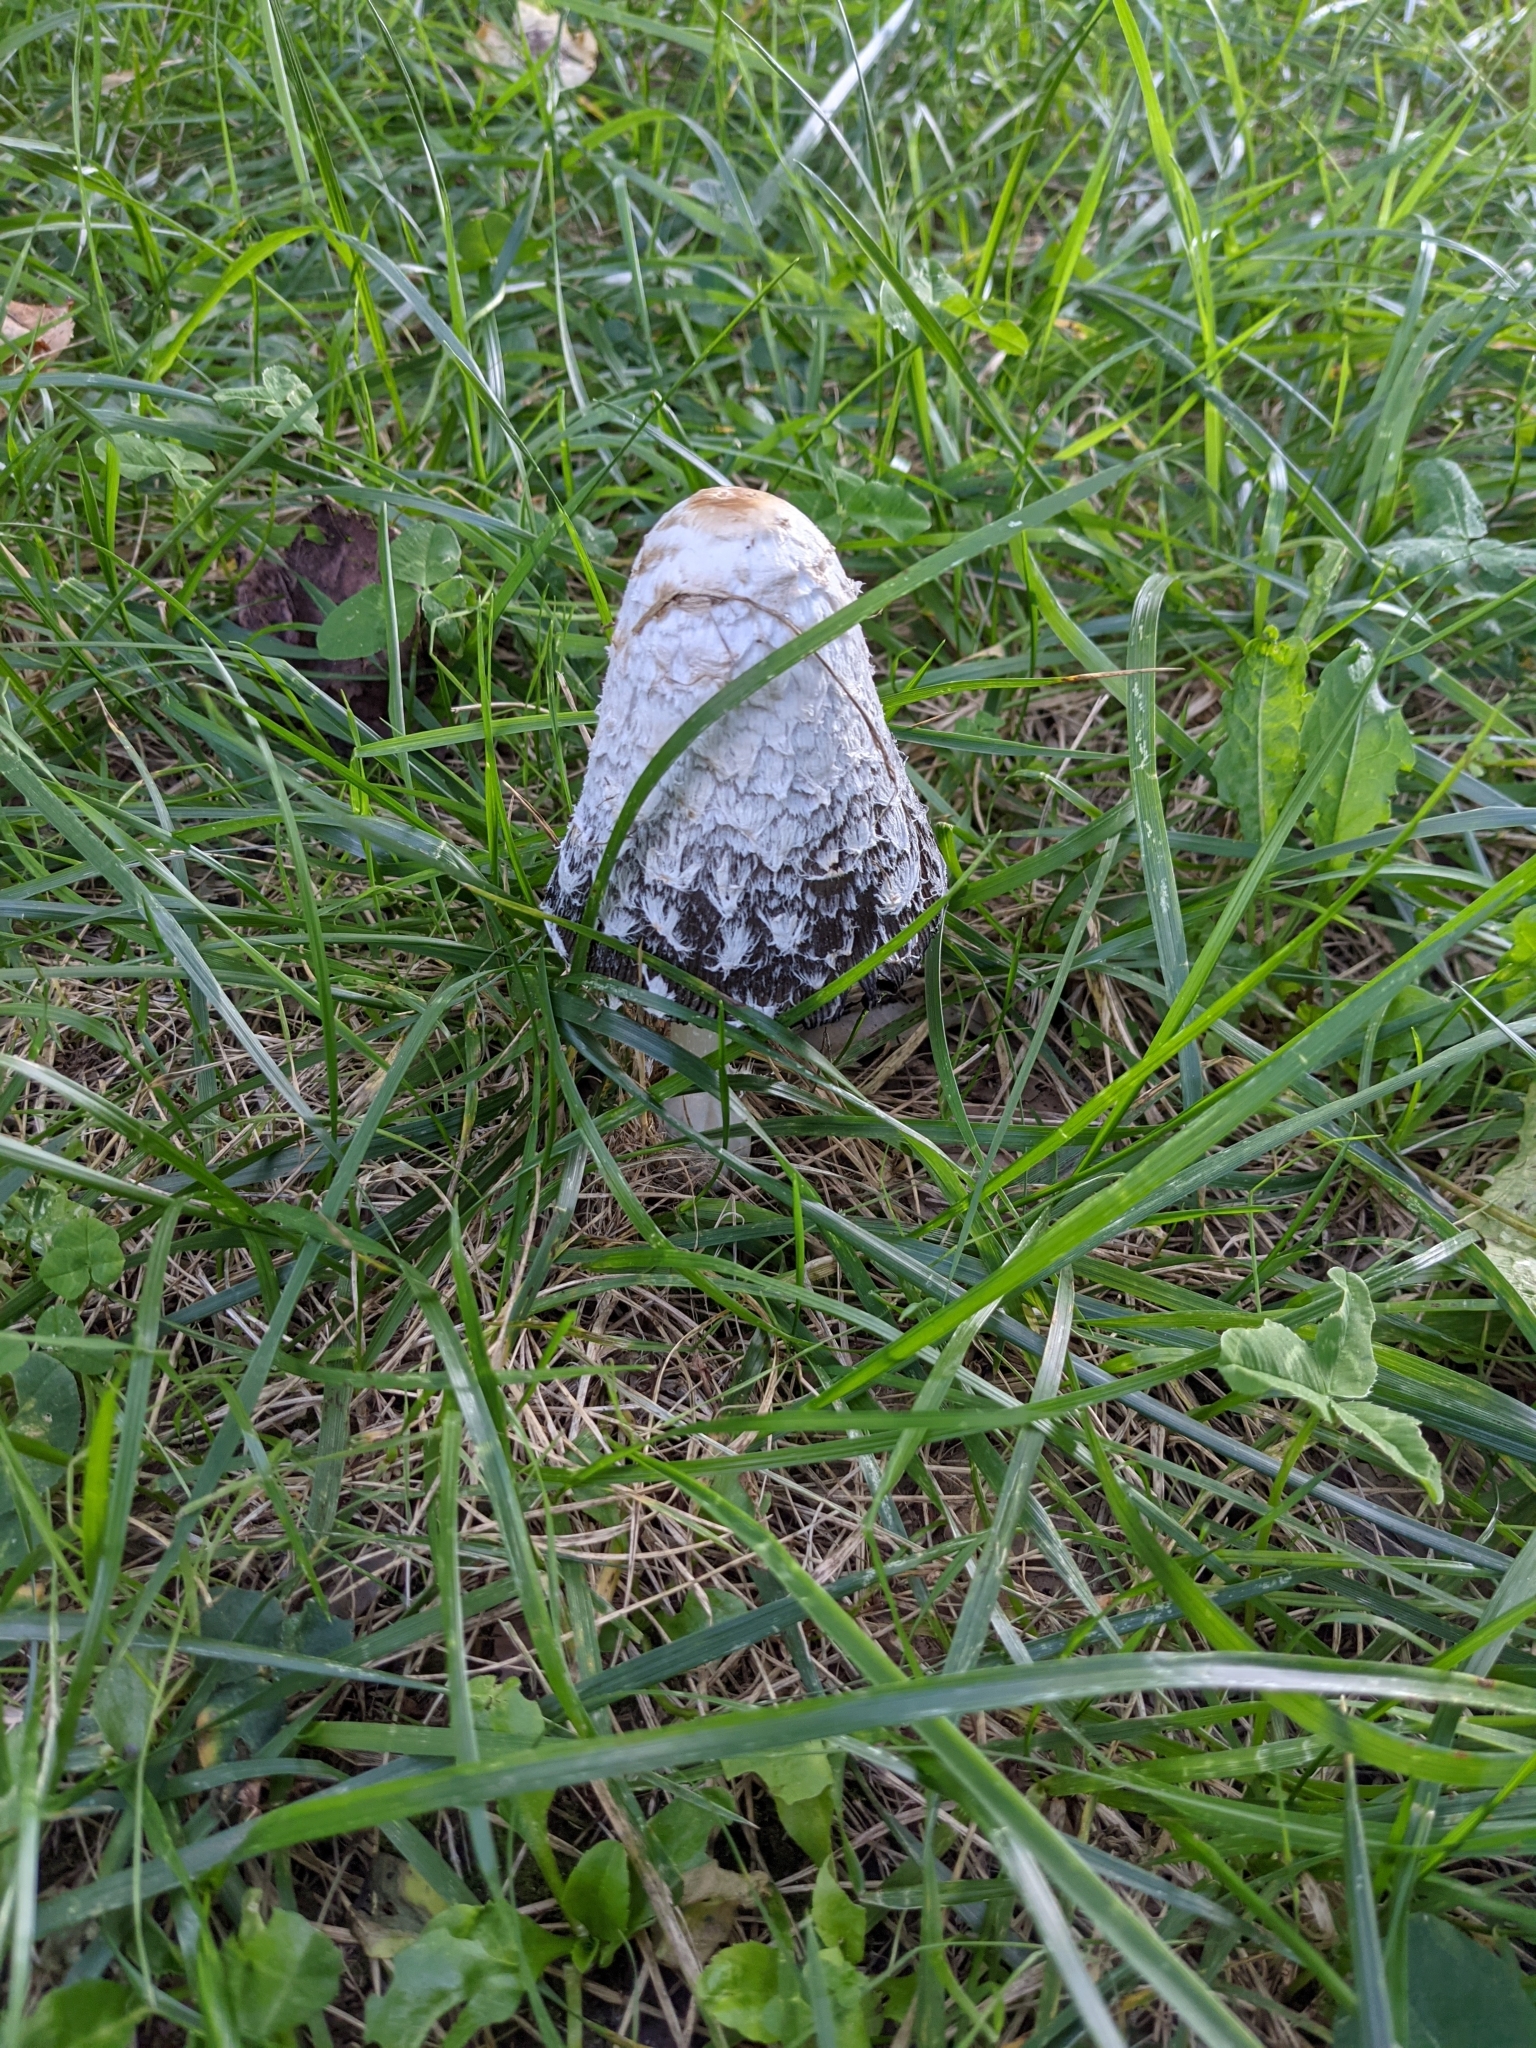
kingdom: Fungi
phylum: Basidiomycota
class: Agaricomycetes
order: Agaricales
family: Agaricaceae
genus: Coprinus
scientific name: Coprinus comatus
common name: Lawyer's wig
